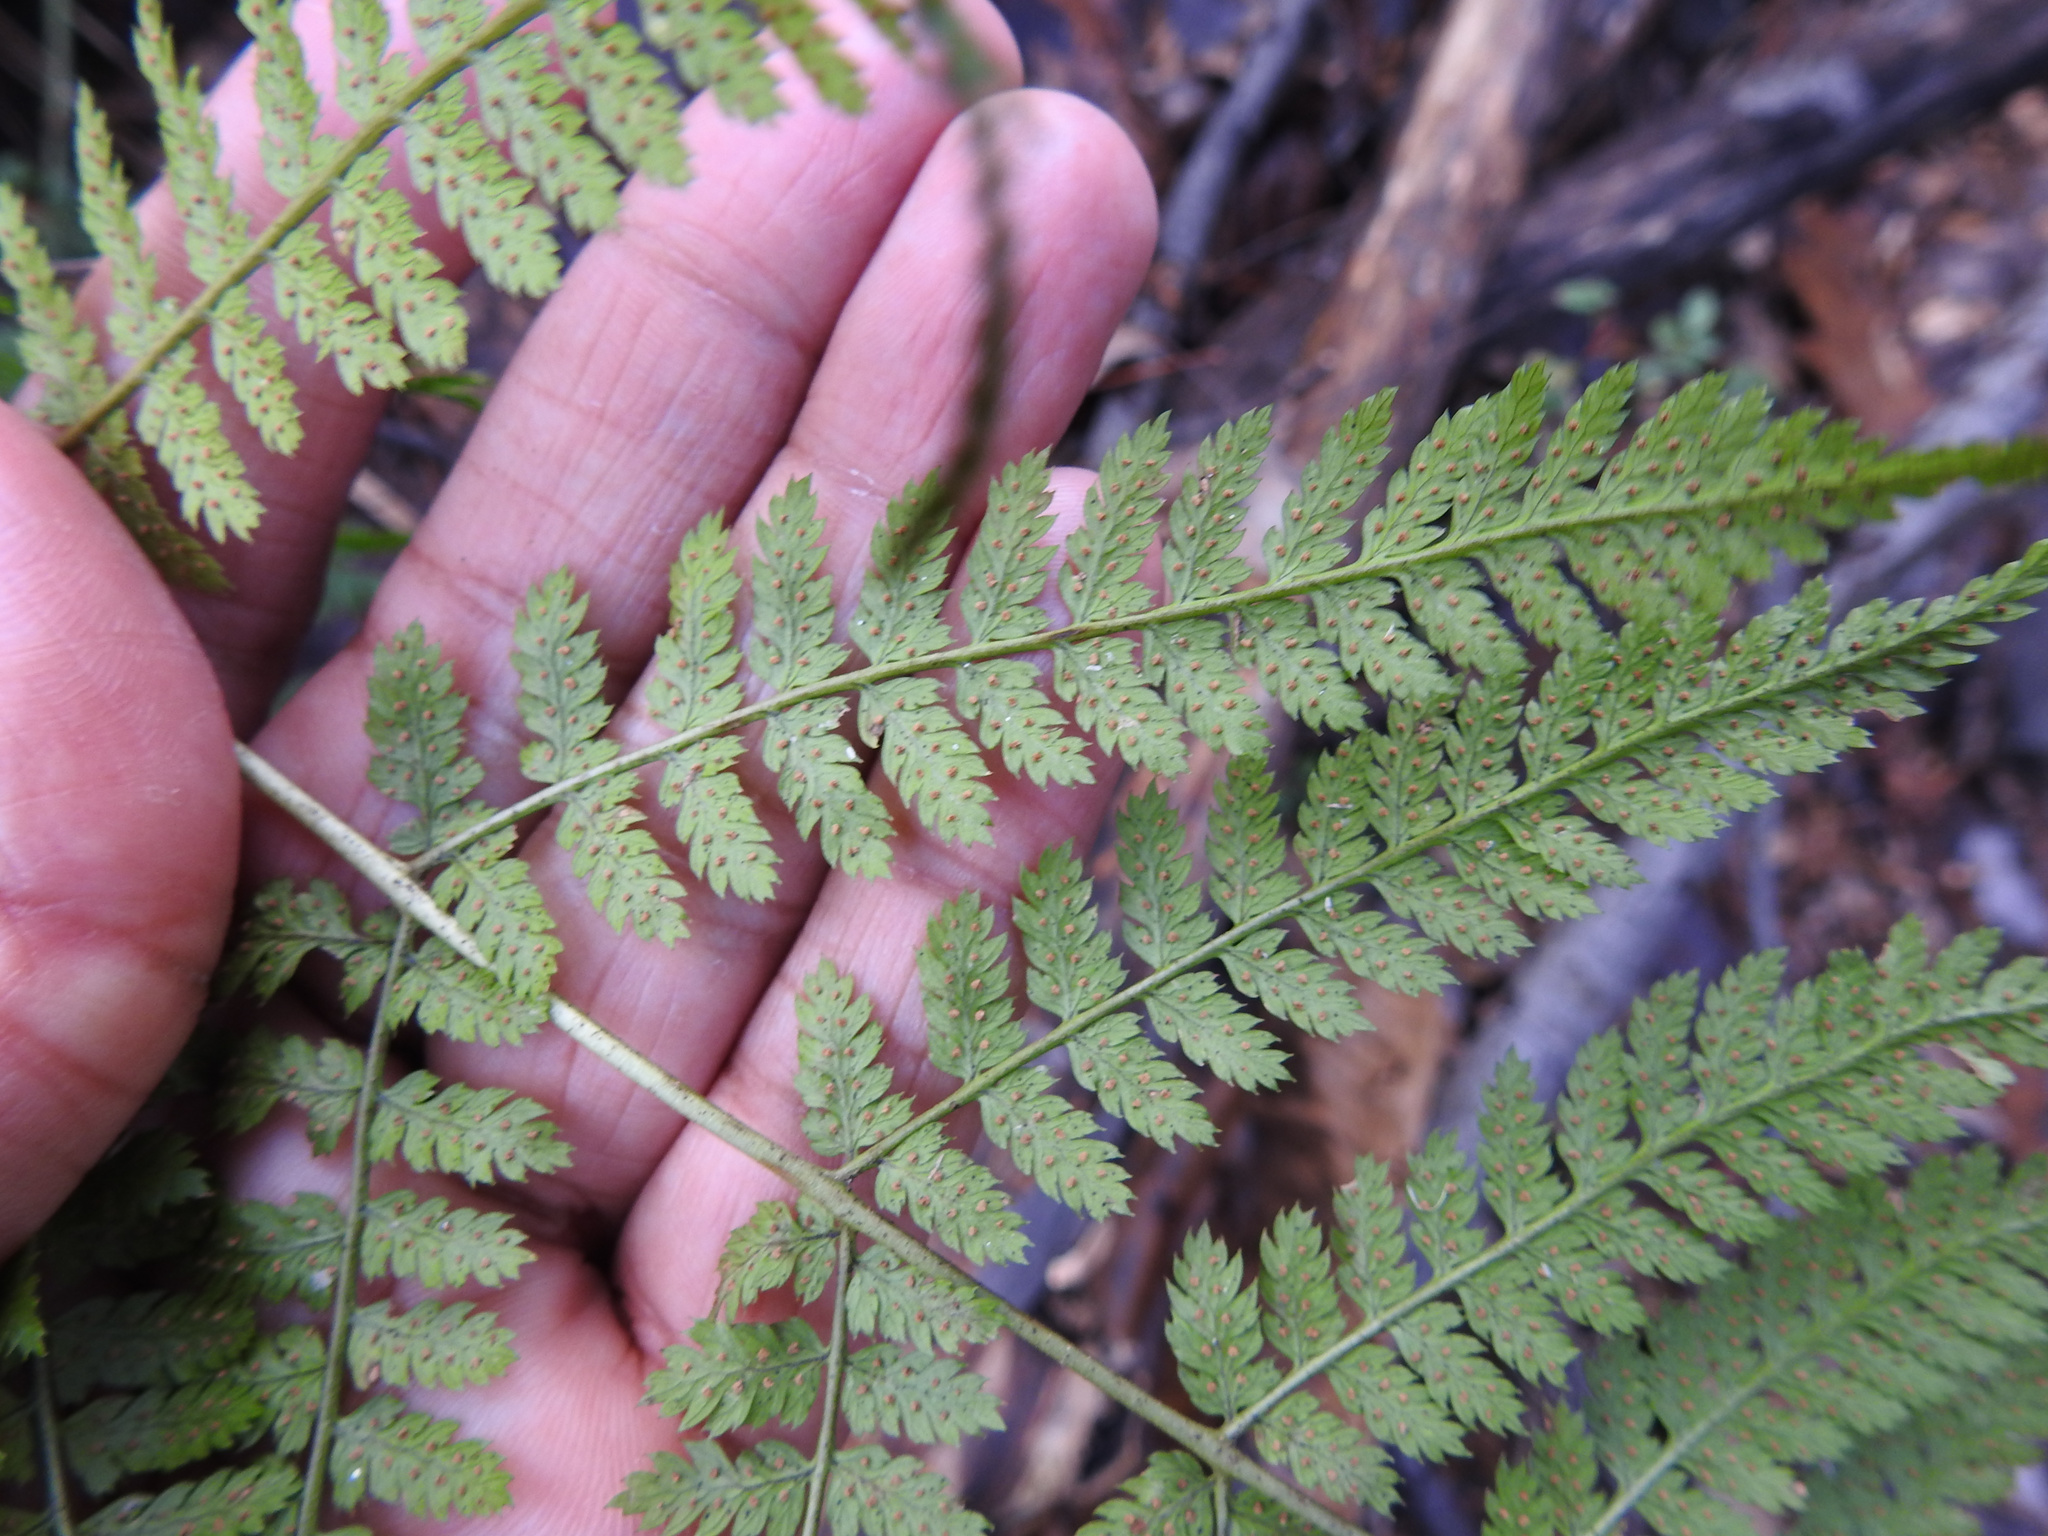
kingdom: Plantae
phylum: Tracheophyta
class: Polypodiopsida
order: Polypodiales
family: Dryopteridaceae
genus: Dryopteris
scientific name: Dryopteris intermedia
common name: Evergreen wood fern
